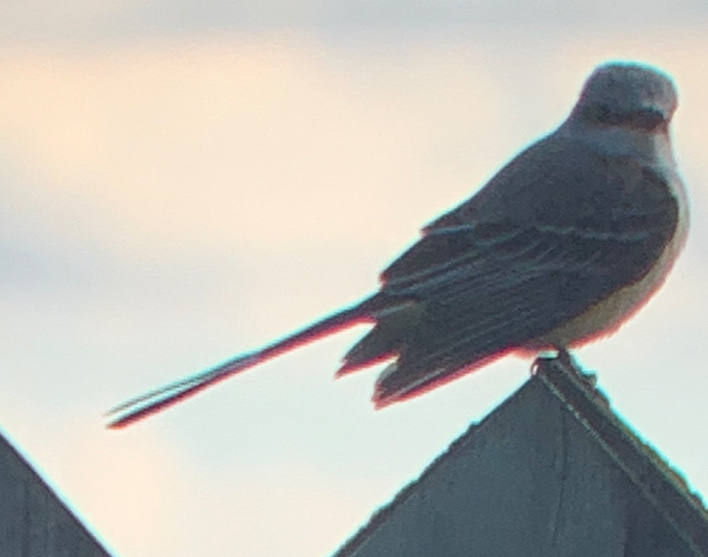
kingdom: Animalia
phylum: Chordata
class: Aves
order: Passeriformes
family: Tyrannidae
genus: Tyrannus
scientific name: Tyrannus forficatus
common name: Scissor-tailed flycatcher
